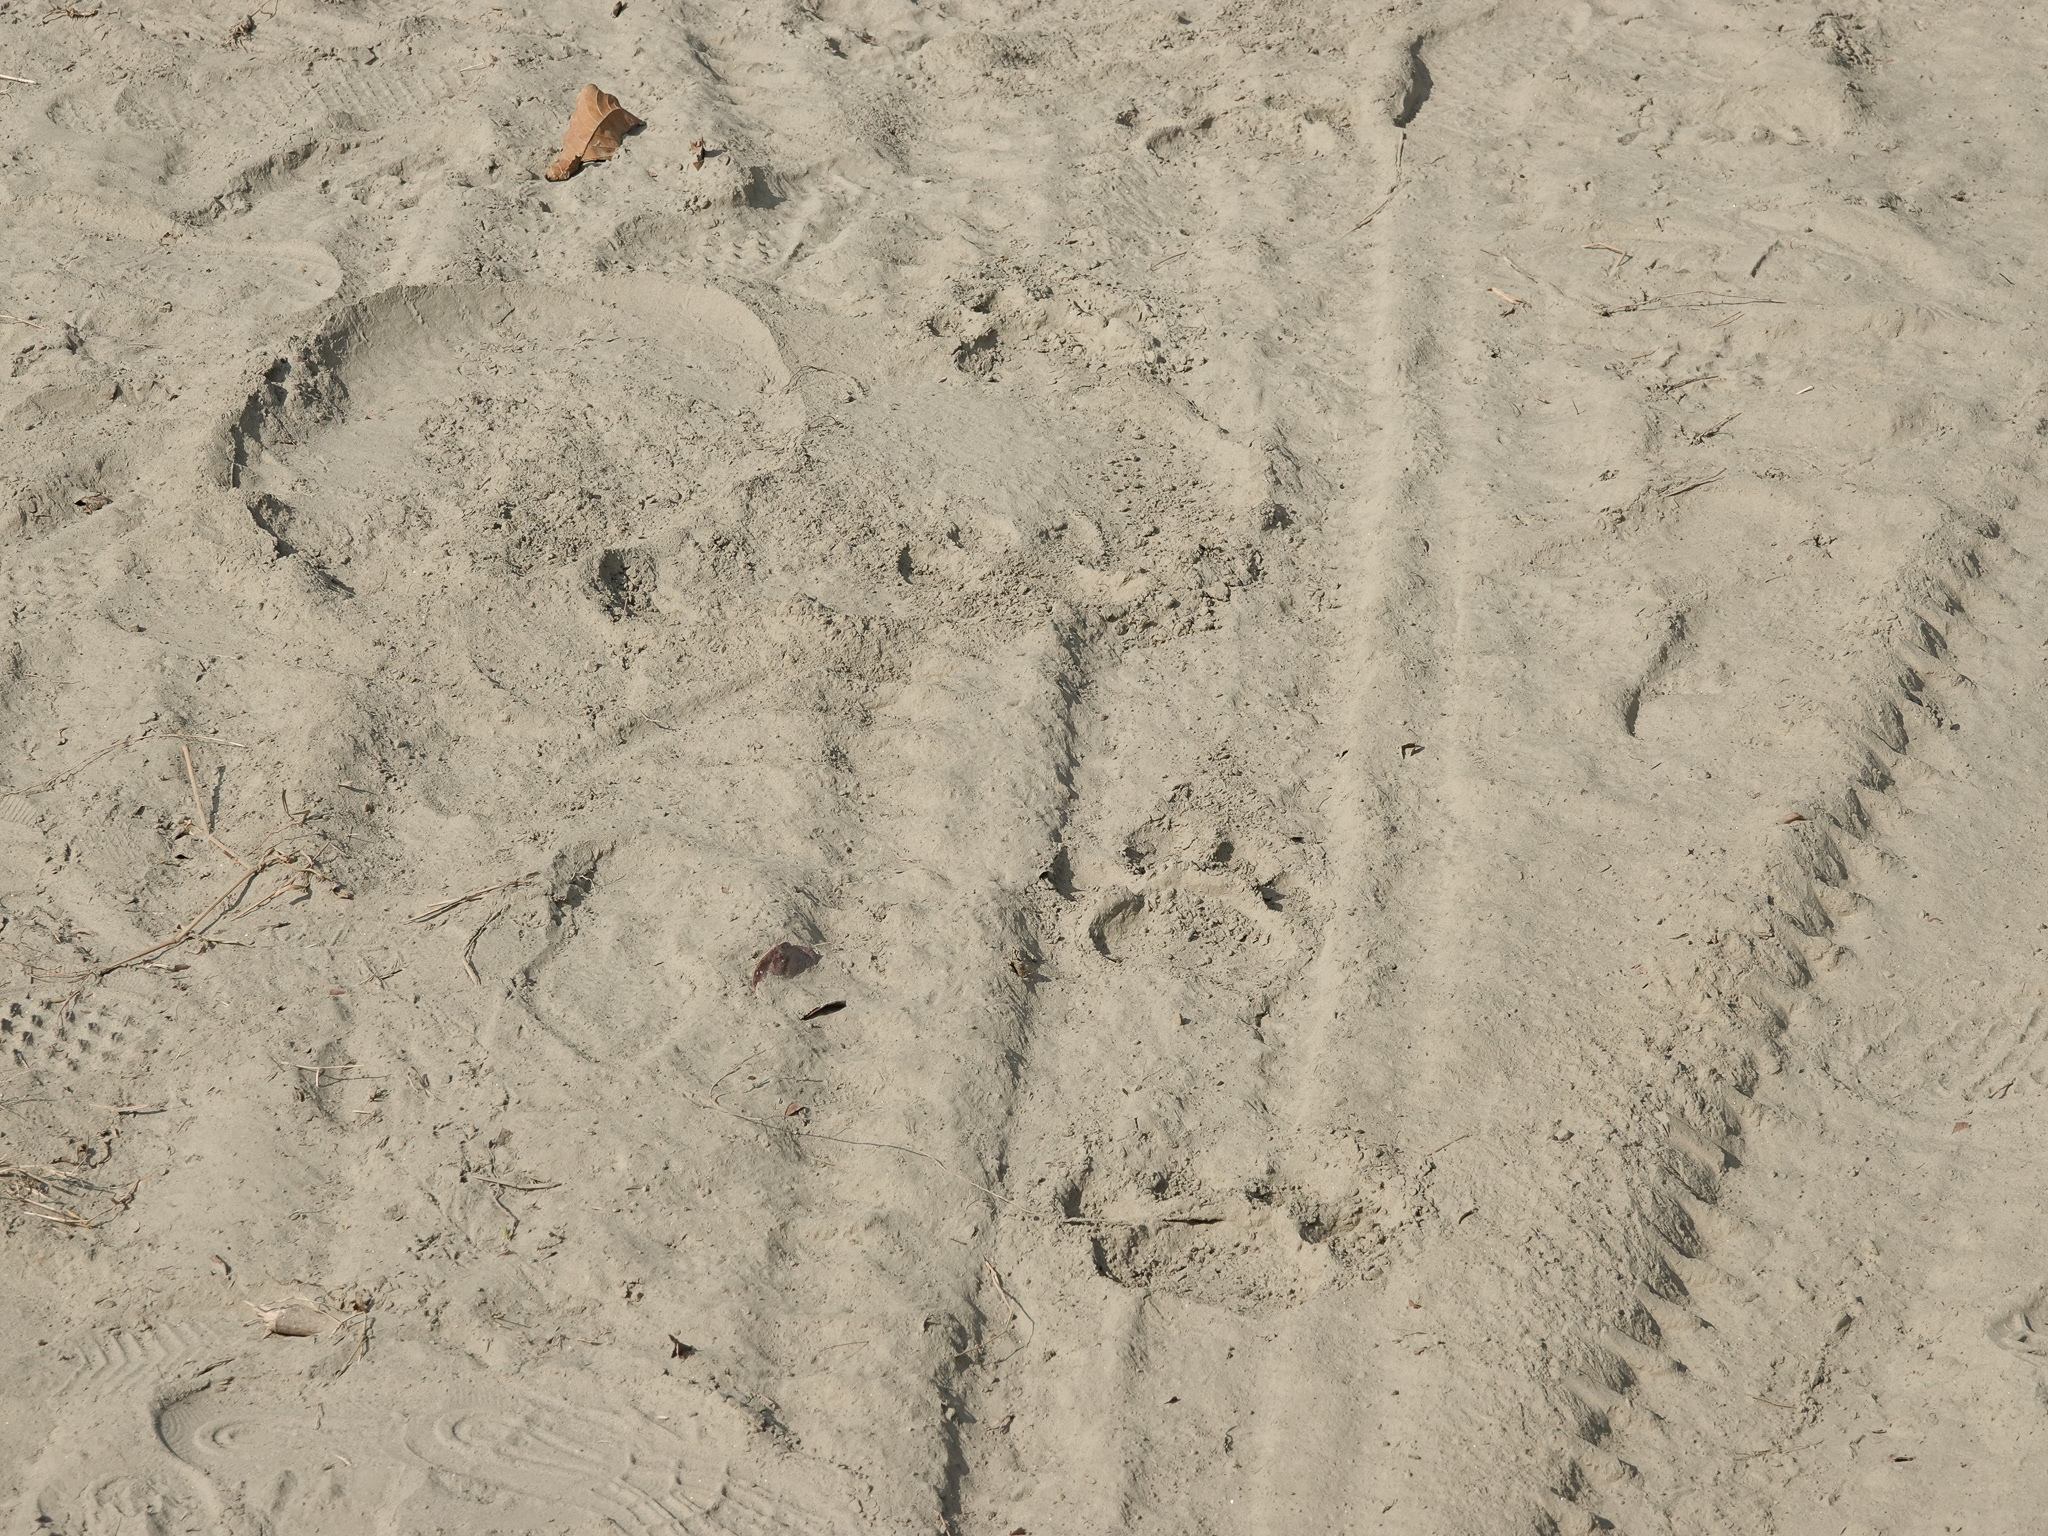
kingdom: Animalia
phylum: Chordata
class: Mammalia
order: Carnivora
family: Felidae
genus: Panthera
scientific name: Panthera tigris
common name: Tiger
